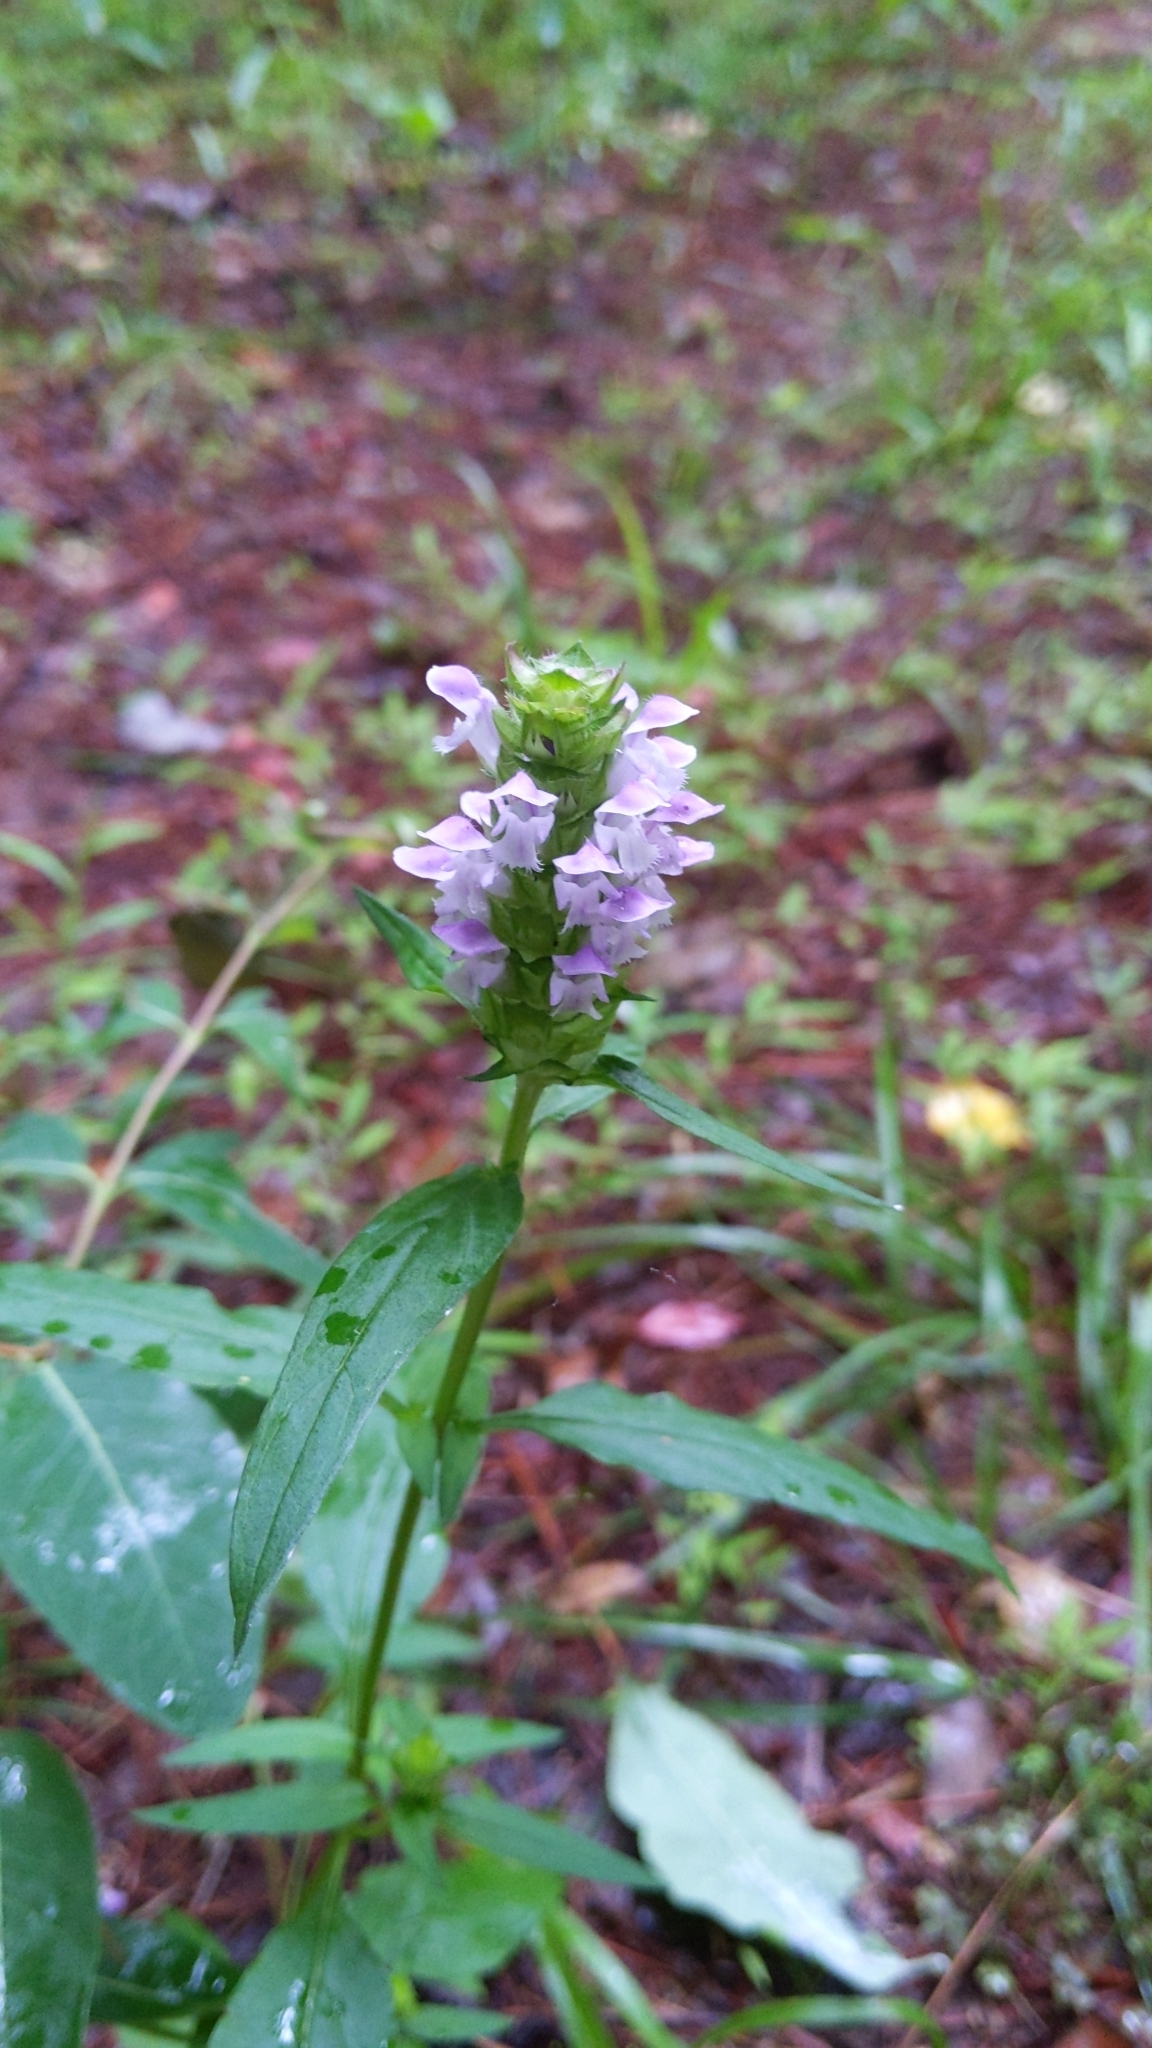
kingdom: Plantae
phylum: Tracheophyta
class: Magnoliopsida
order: Lamiales
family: Lamiaceae
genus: Prunella
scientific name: Prunella vulgaris
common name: Heal-all
